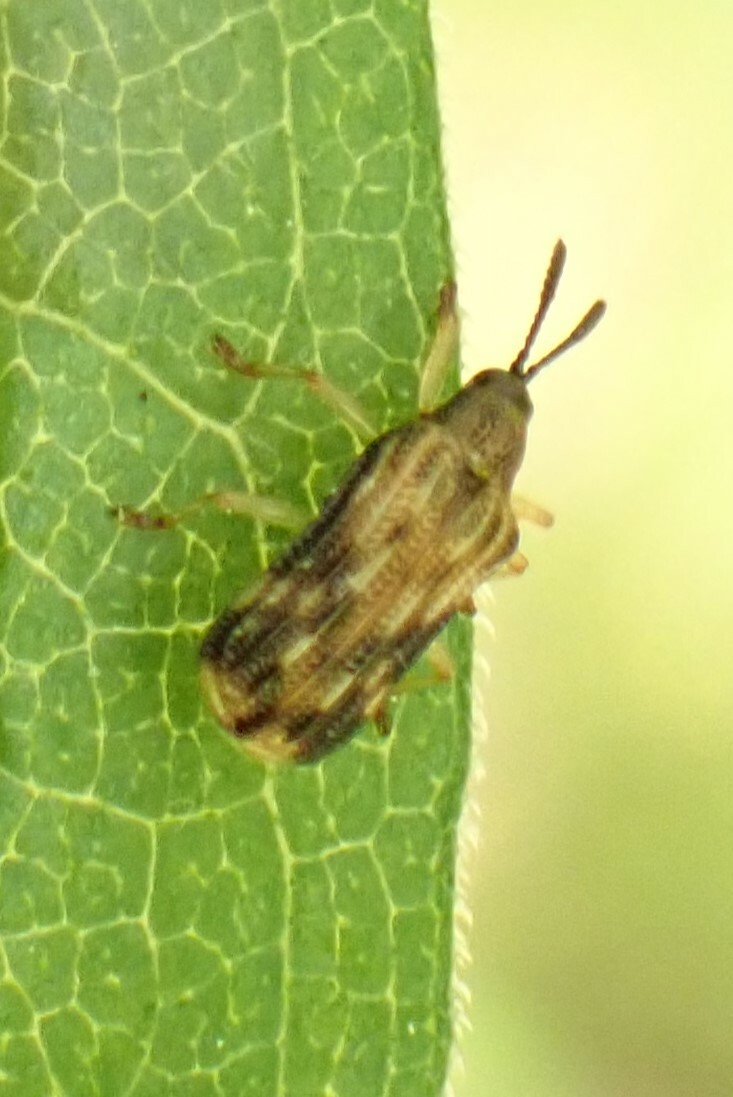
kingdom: Animalia
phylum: Arthropoda
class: Insecta
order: Coleoptera
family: Chrysomelidae
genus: Sumitrosis
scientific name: Sumitrosis inaequalis
